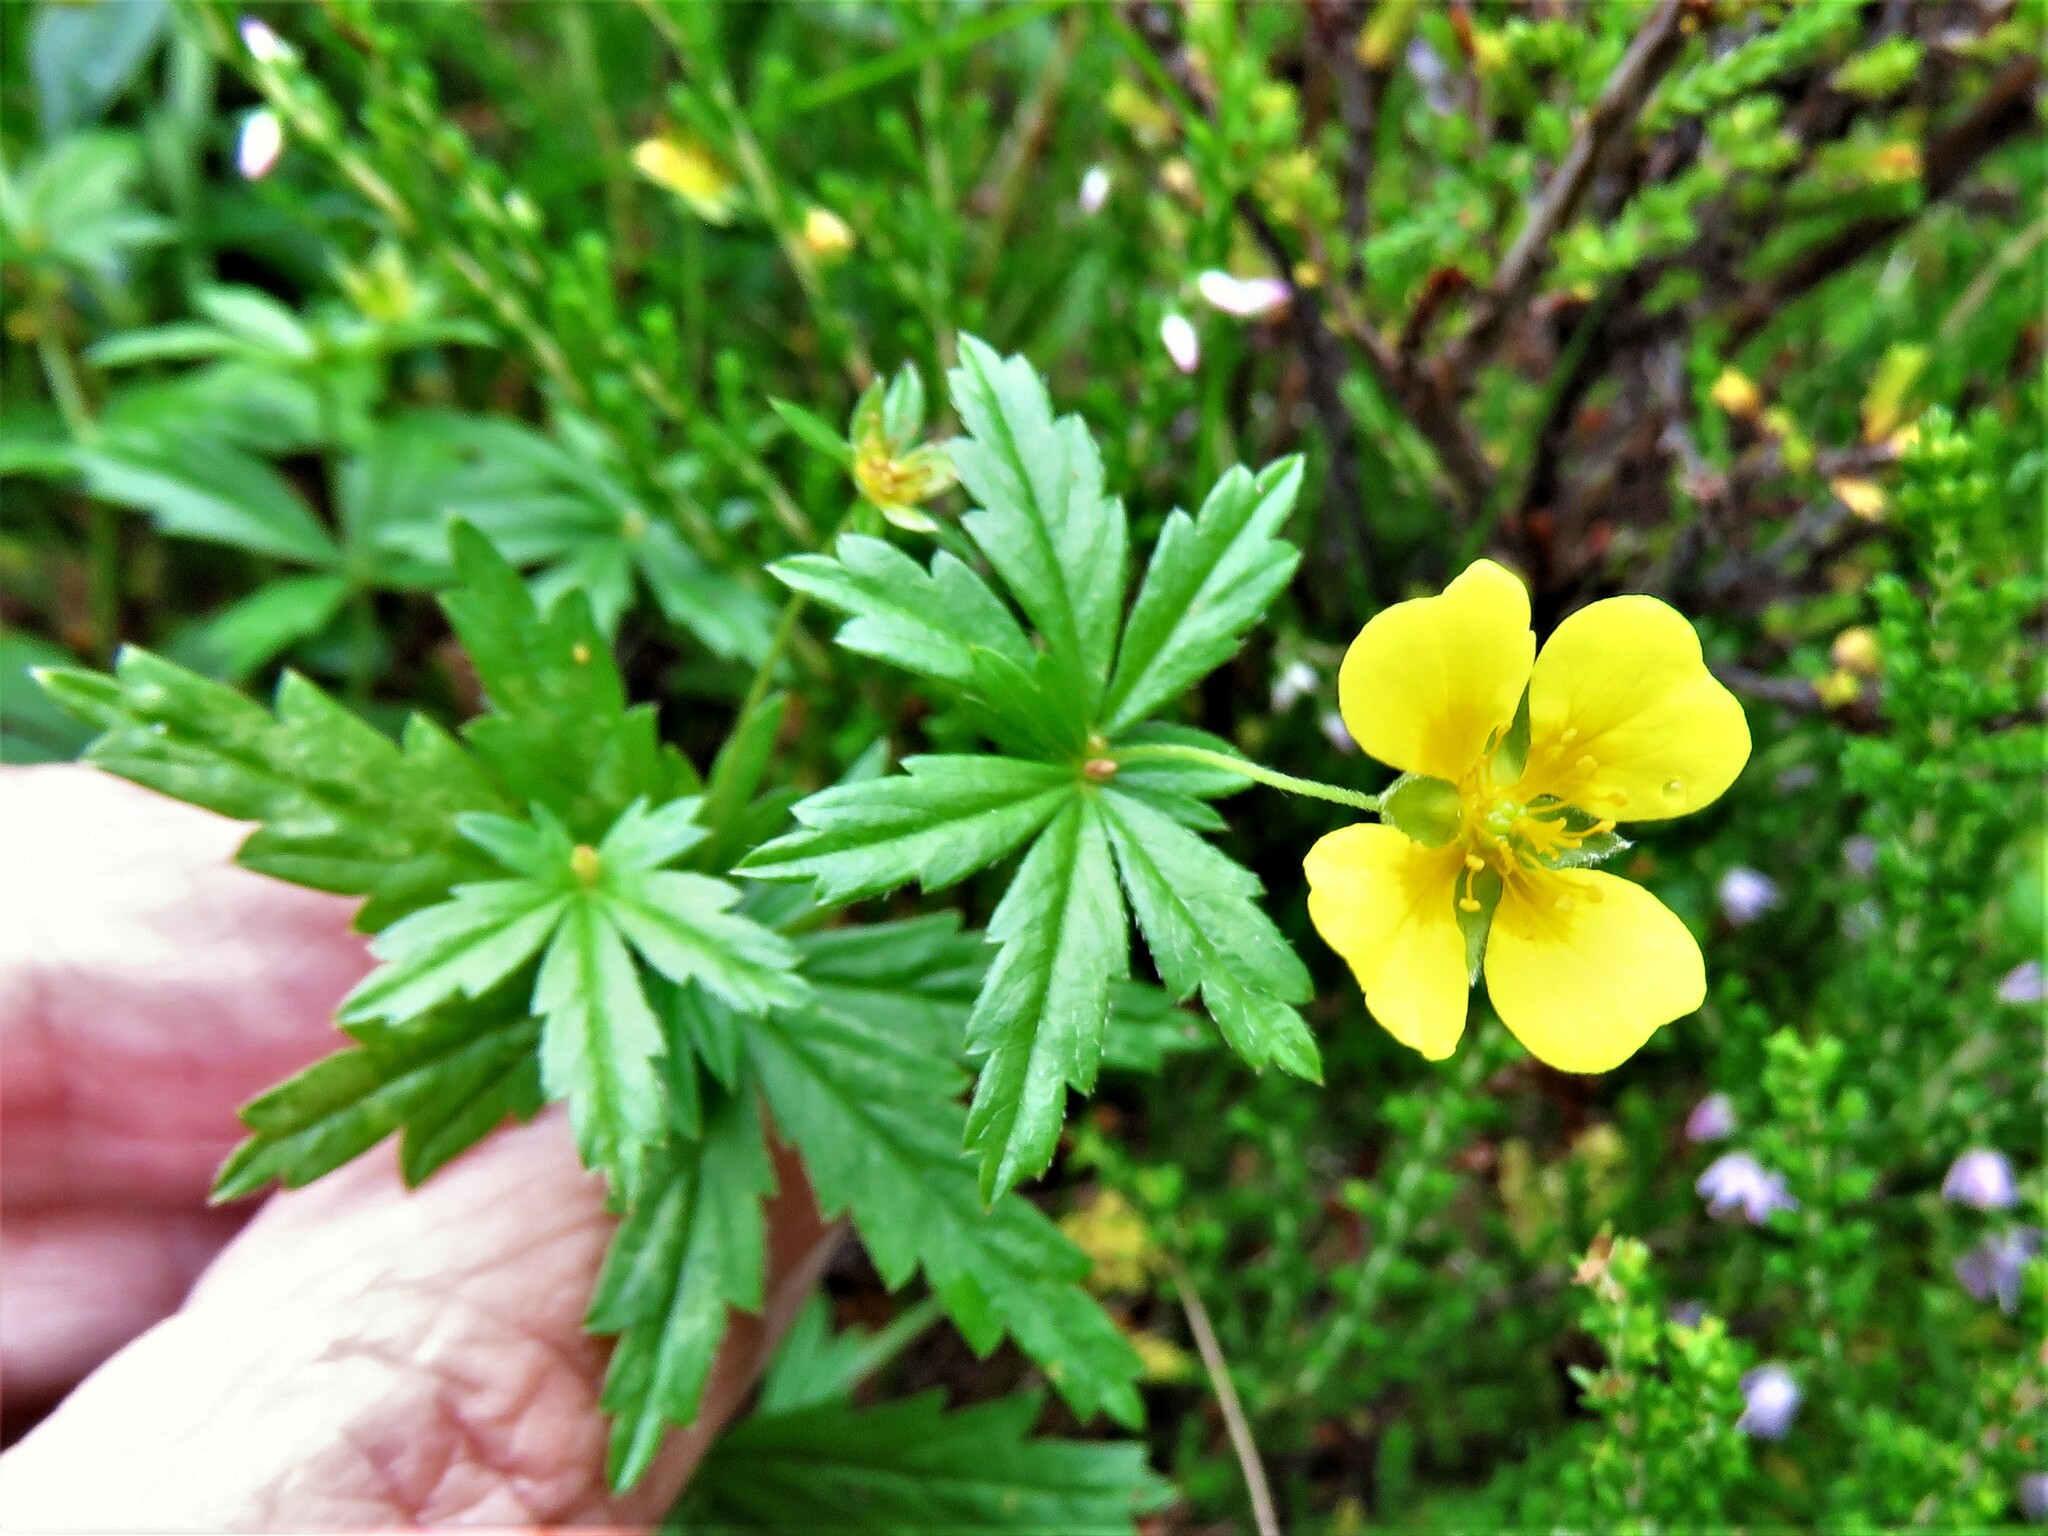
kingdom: Plantae
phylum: Tracheophyta
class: Magnoliopsida
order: Rosales
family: Rosaceae
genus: Potentilla
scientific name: Potentilla erecta
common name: Tormentil
